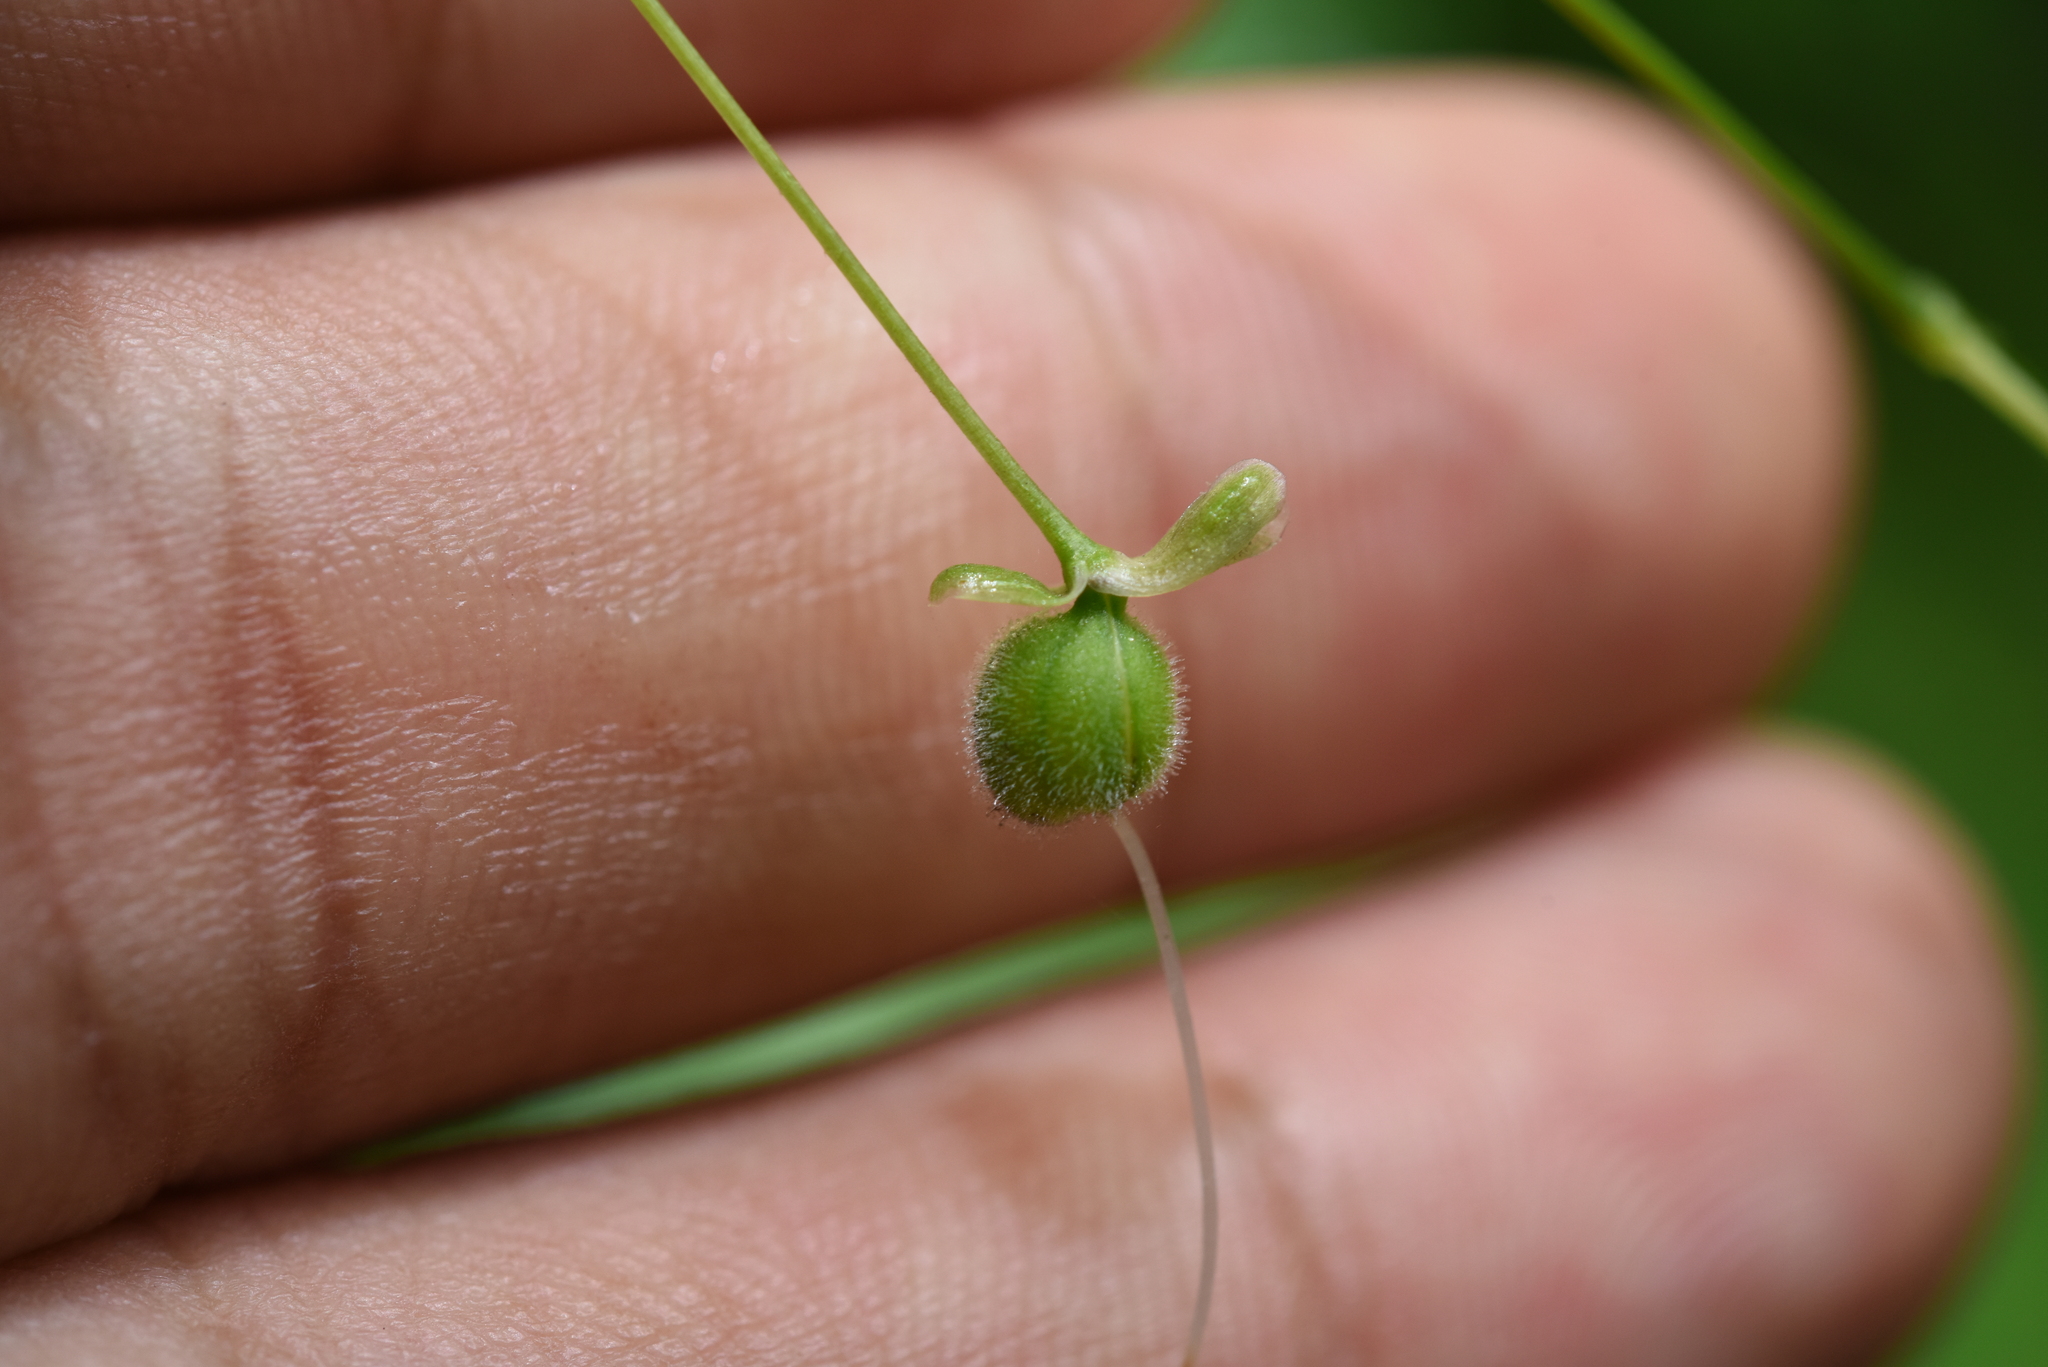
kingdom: Plantae
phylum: Tracheophyta
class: Liliopsida
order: Commelinales
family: Commelinaceae
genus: Rhopalephora
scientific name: Rhopalephora scaberrima
